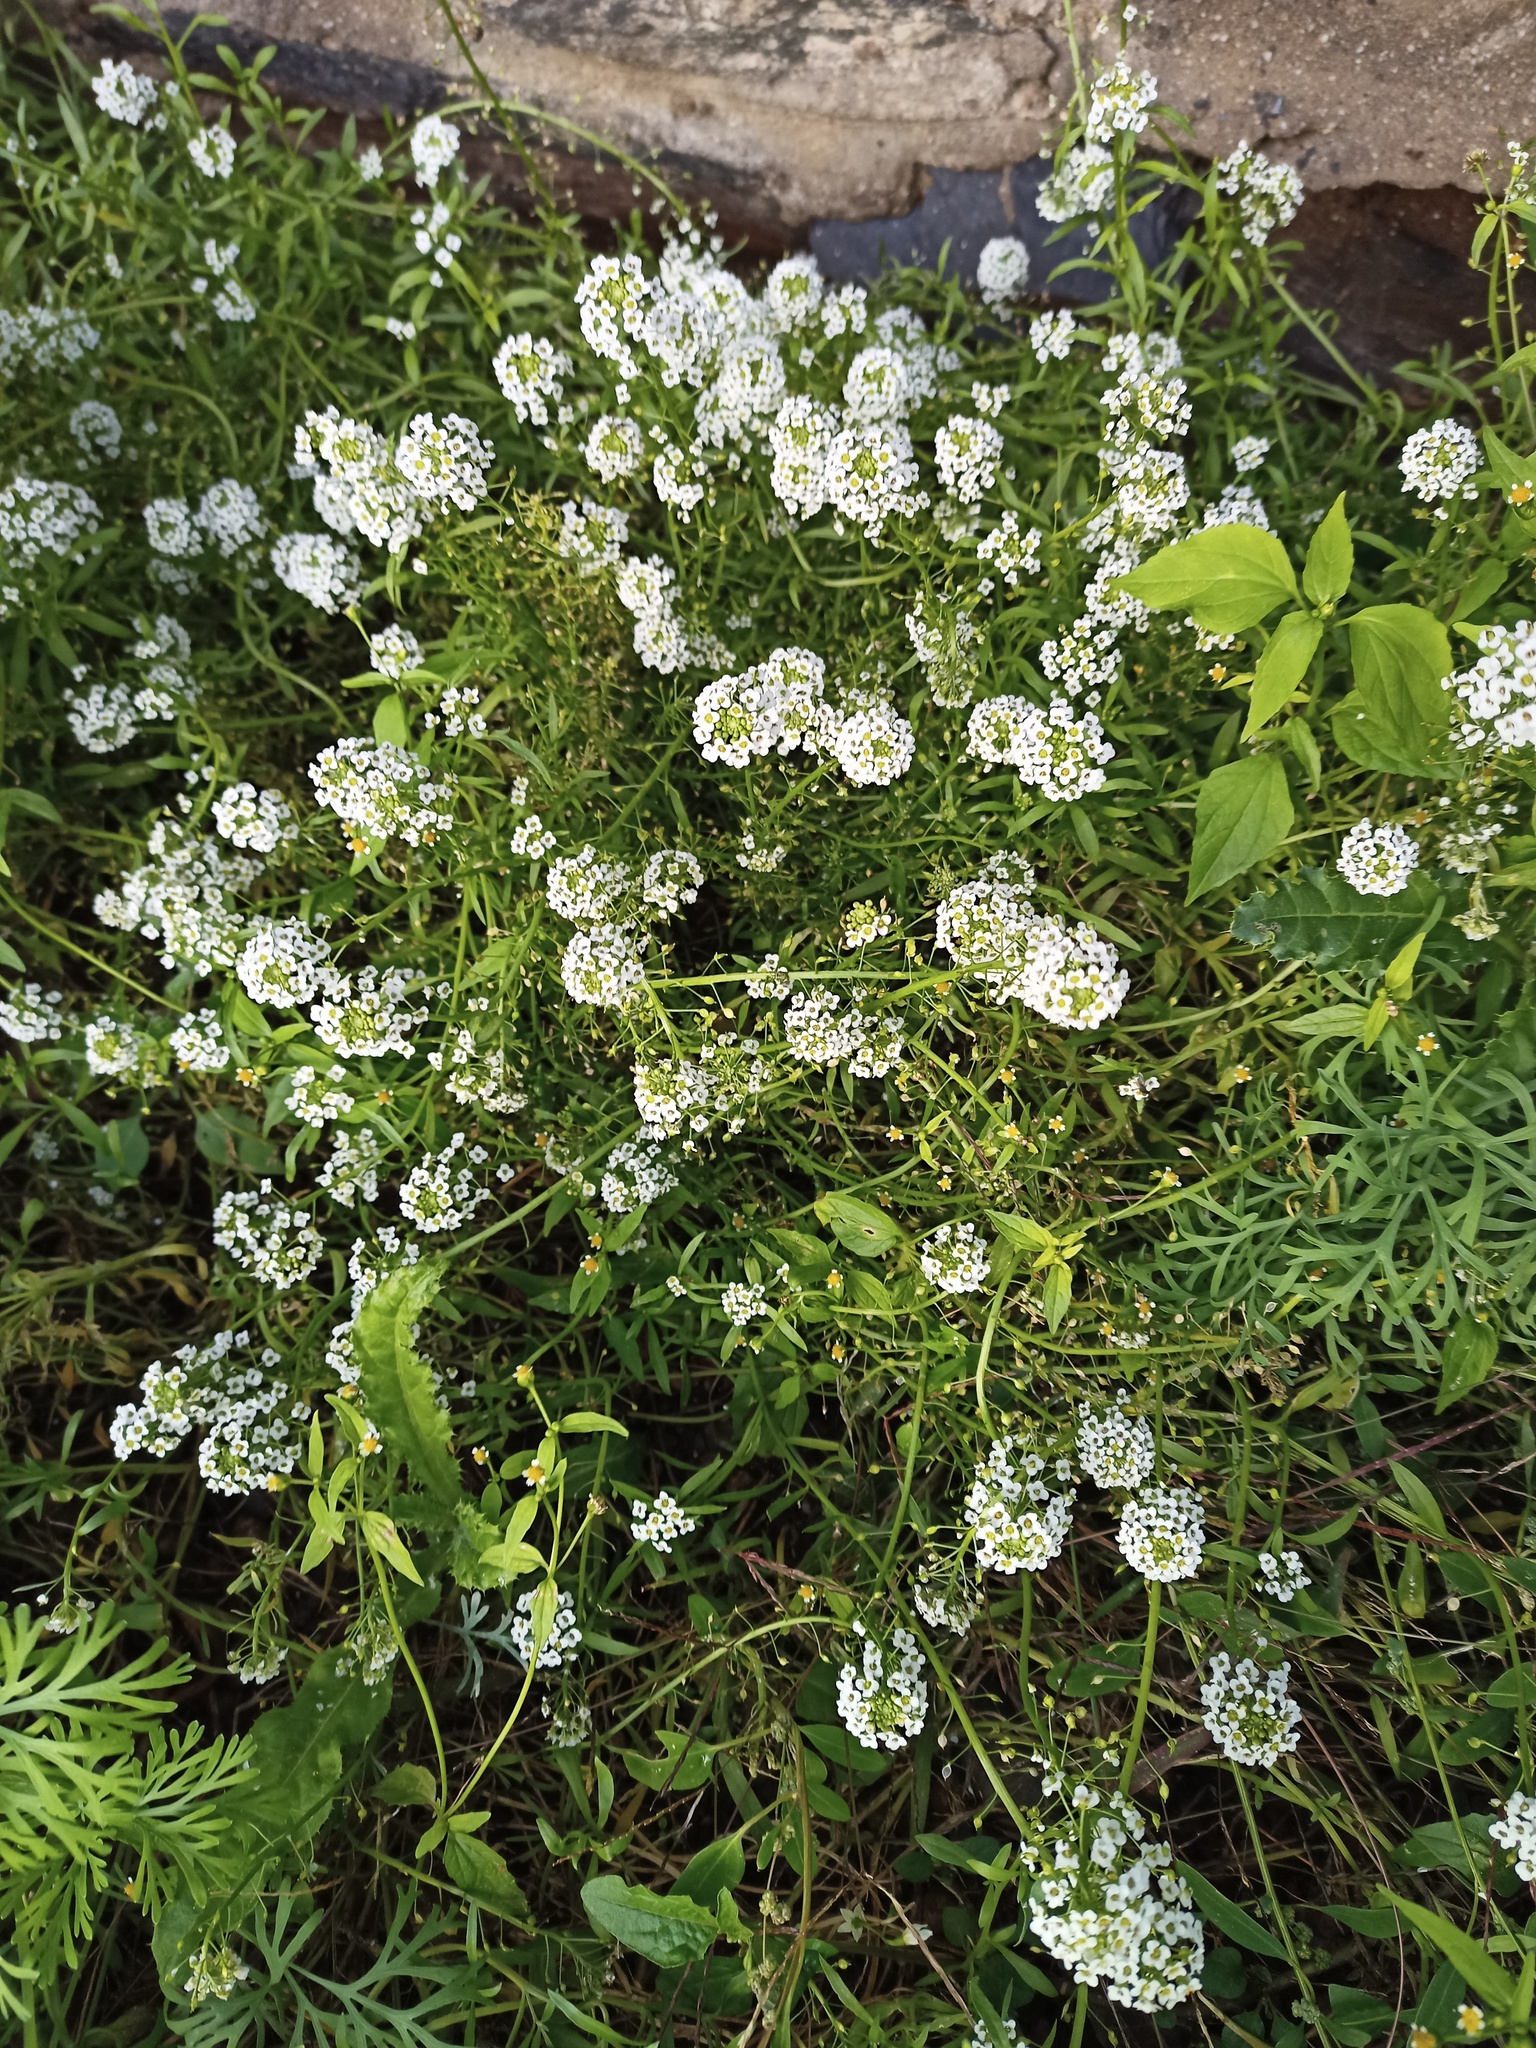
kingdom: Plantae
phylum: Tracheophyta
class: Magnoliopsida
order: Brassicales
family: Brassicaceae
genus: Lobularia
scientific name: Lobularia maritima
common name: Sweet alison
